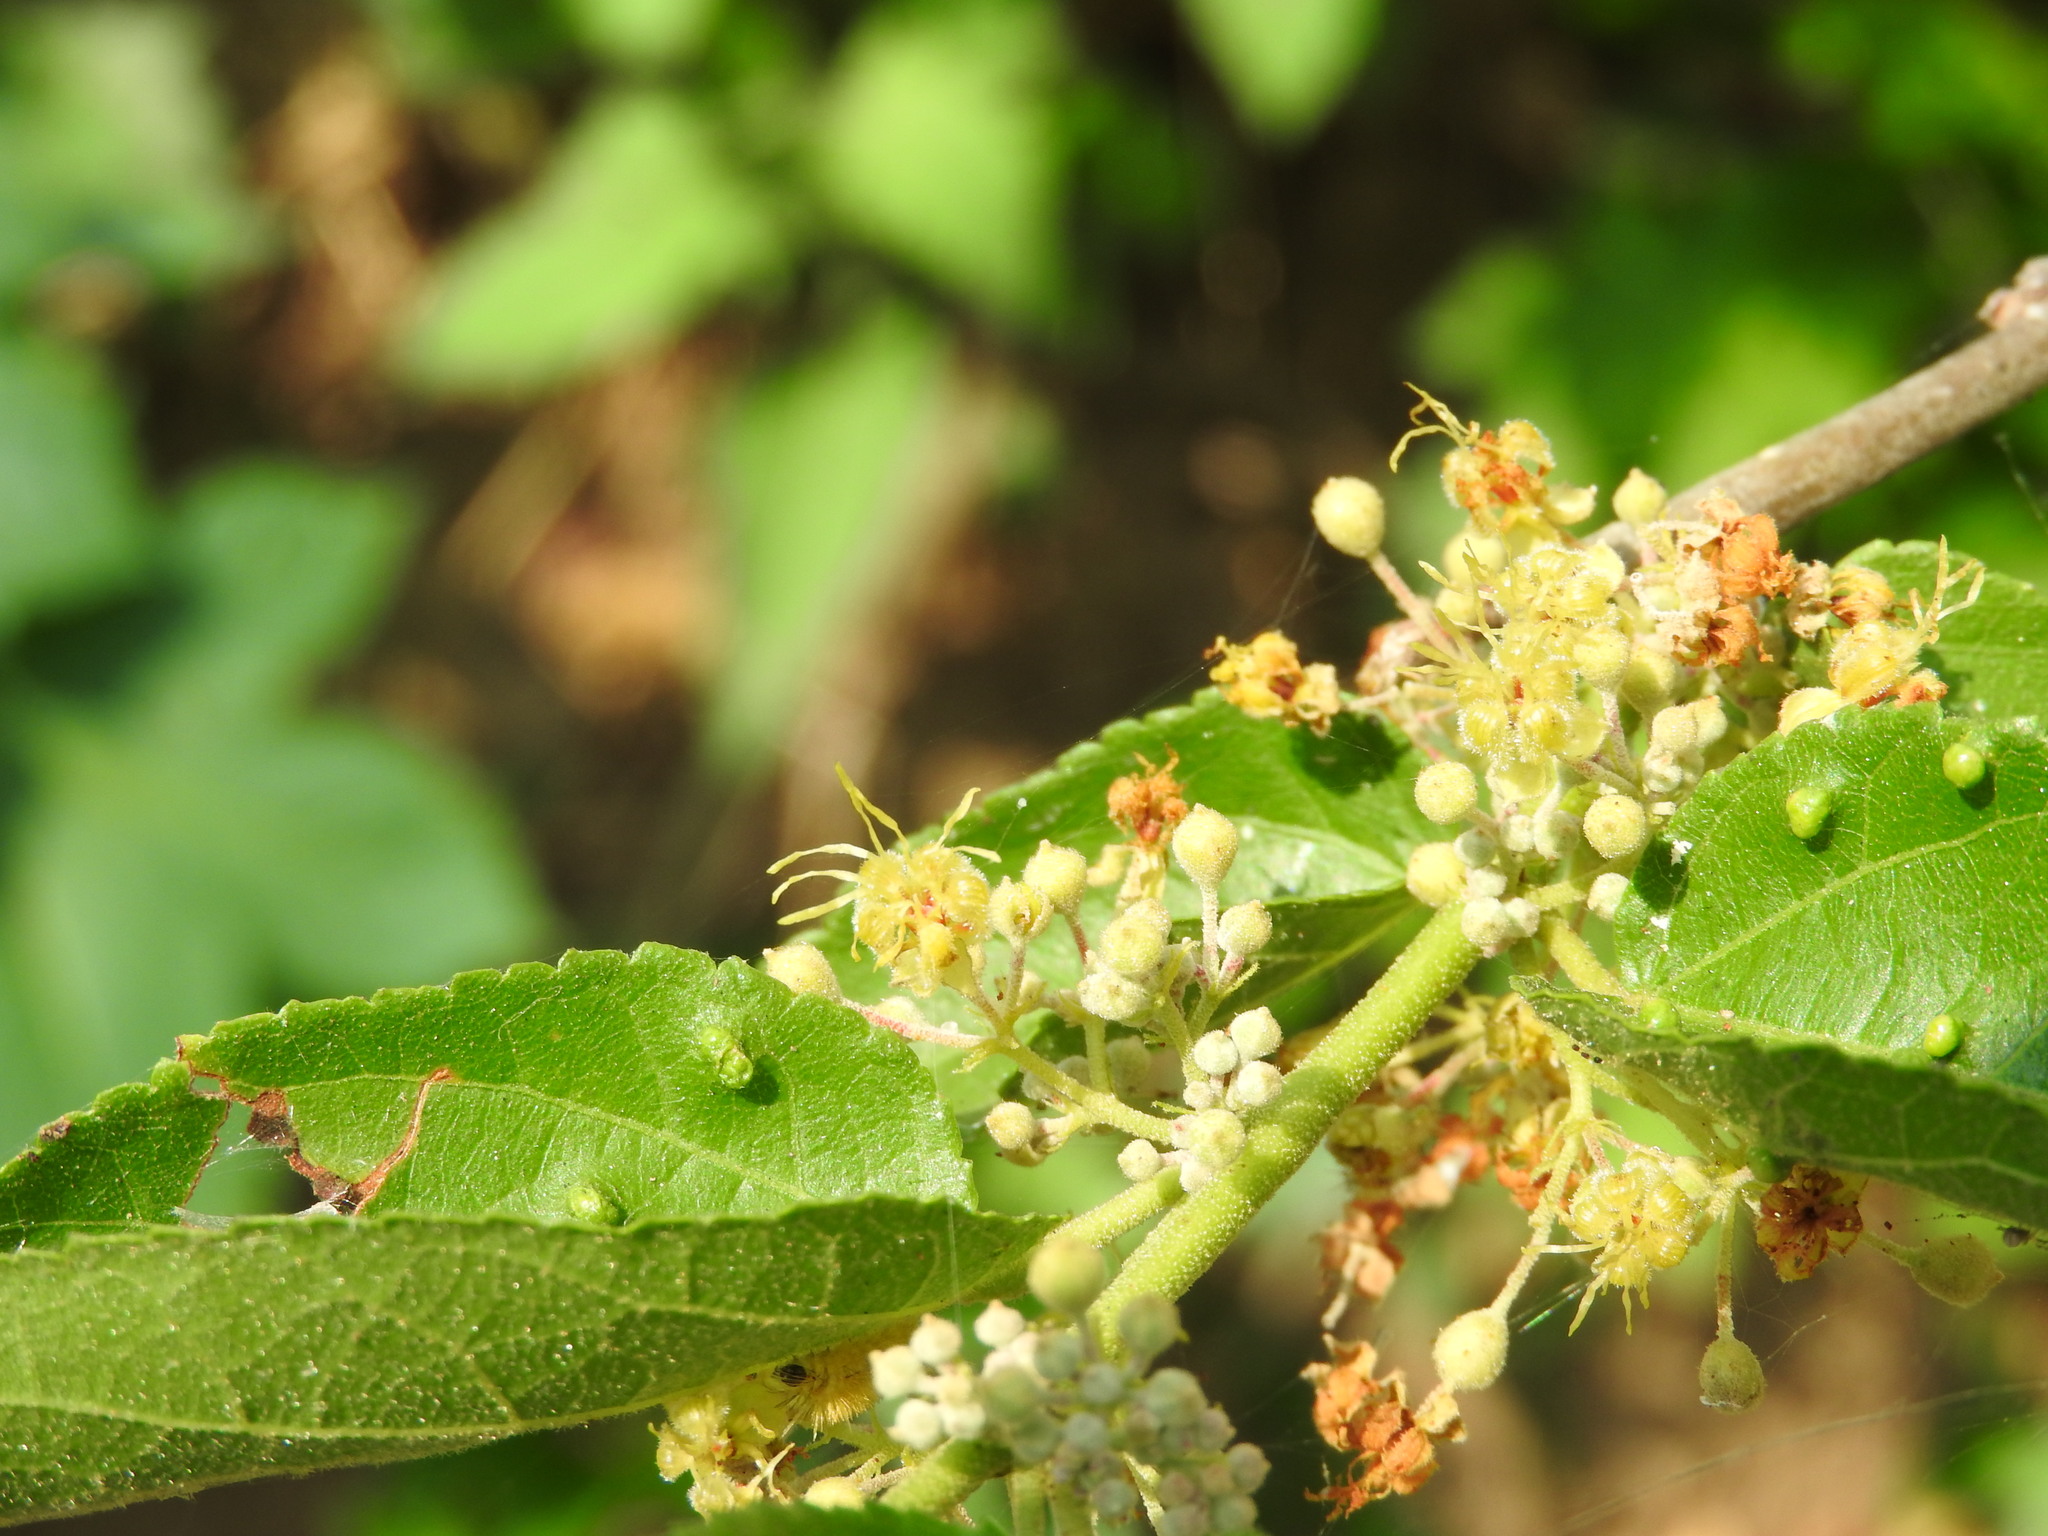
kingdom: Plantae
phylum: Tracheophyta
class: Magnoliopsida
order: Malvales
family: Malvaceae
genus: Guazuma
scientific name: Guazuma ulmifolia
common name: Bastard-cedar
